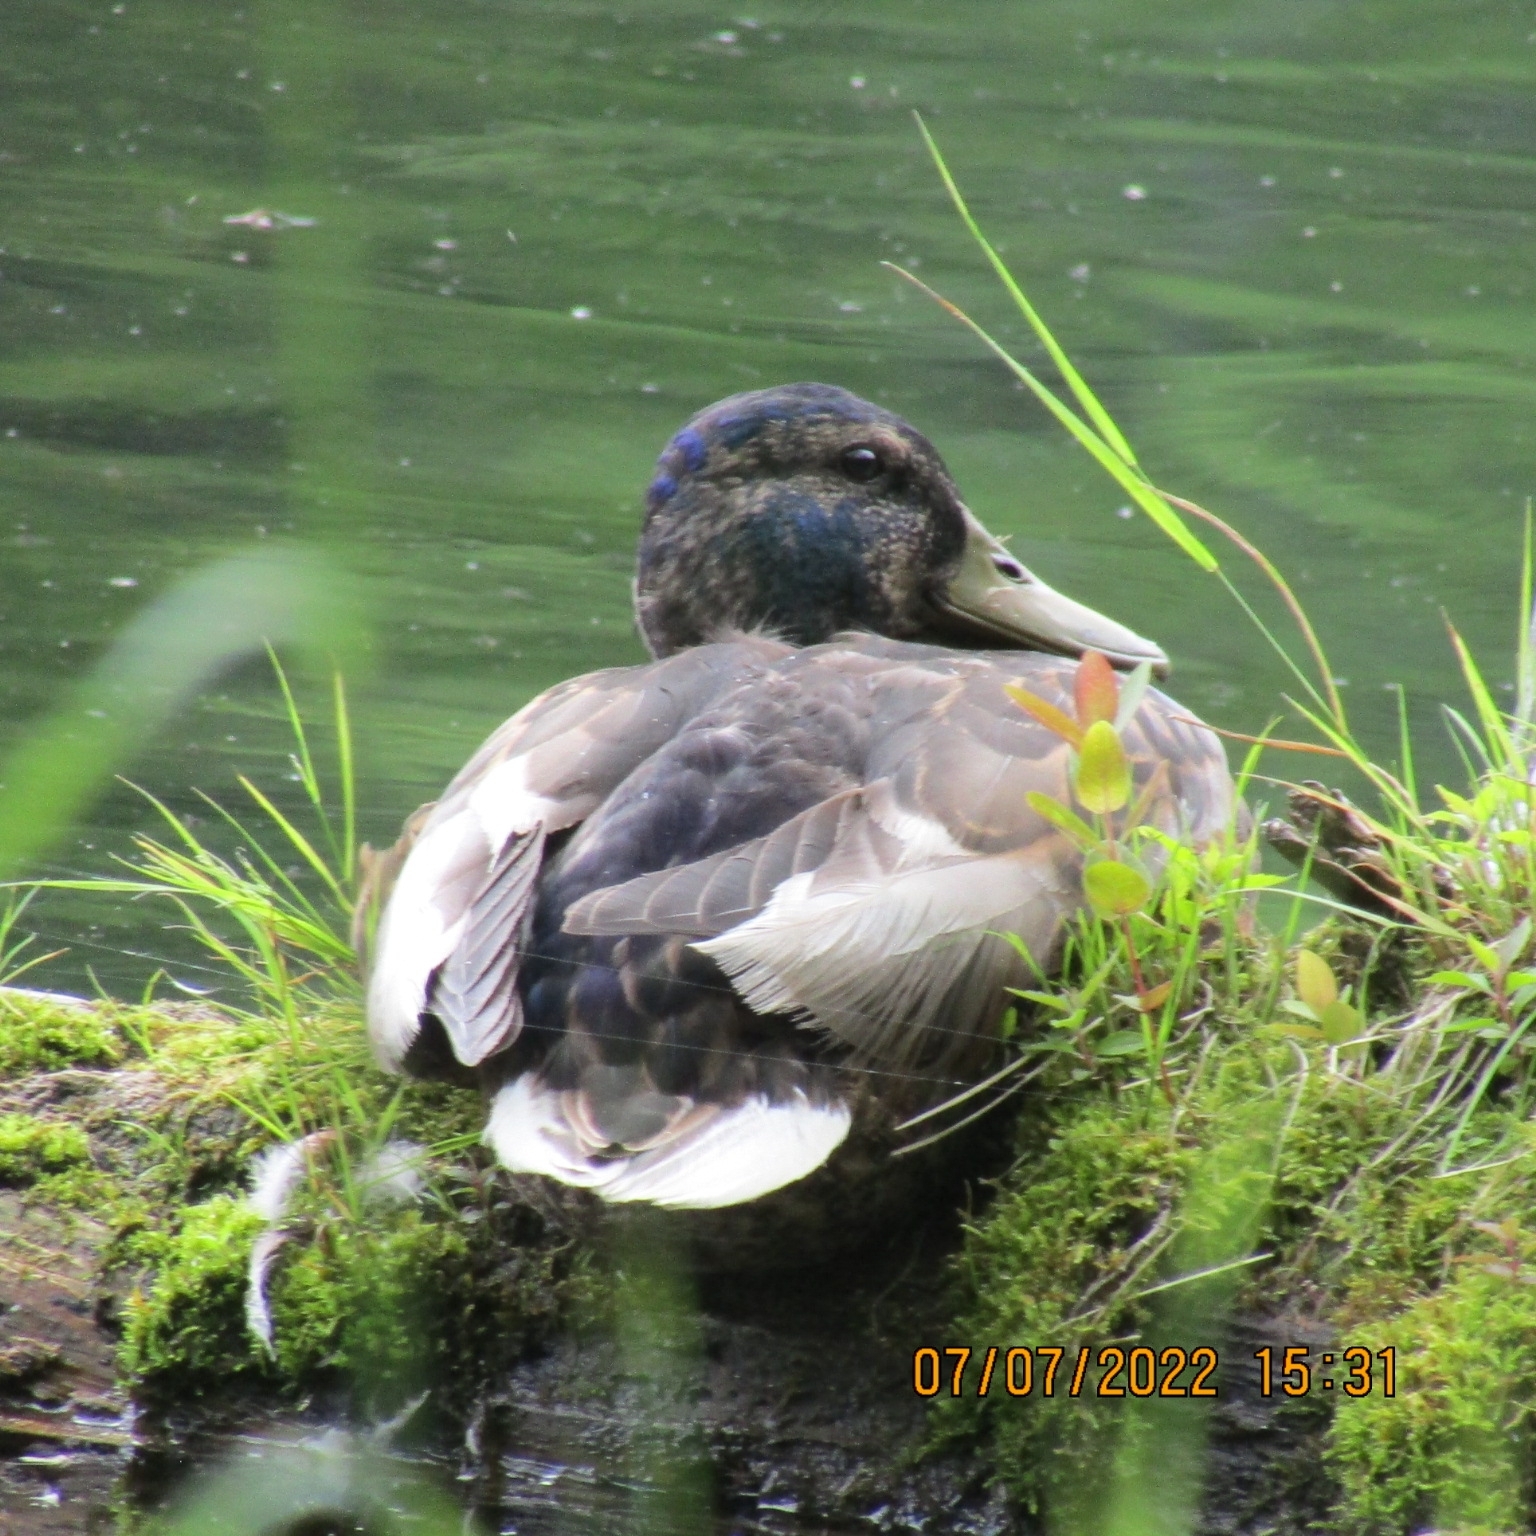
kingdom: Animalia
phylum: Chordata
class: Aves
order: Anseriformes
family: Anatidae
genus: Anas
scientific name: Anas platyrhynchos
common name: Mallard
